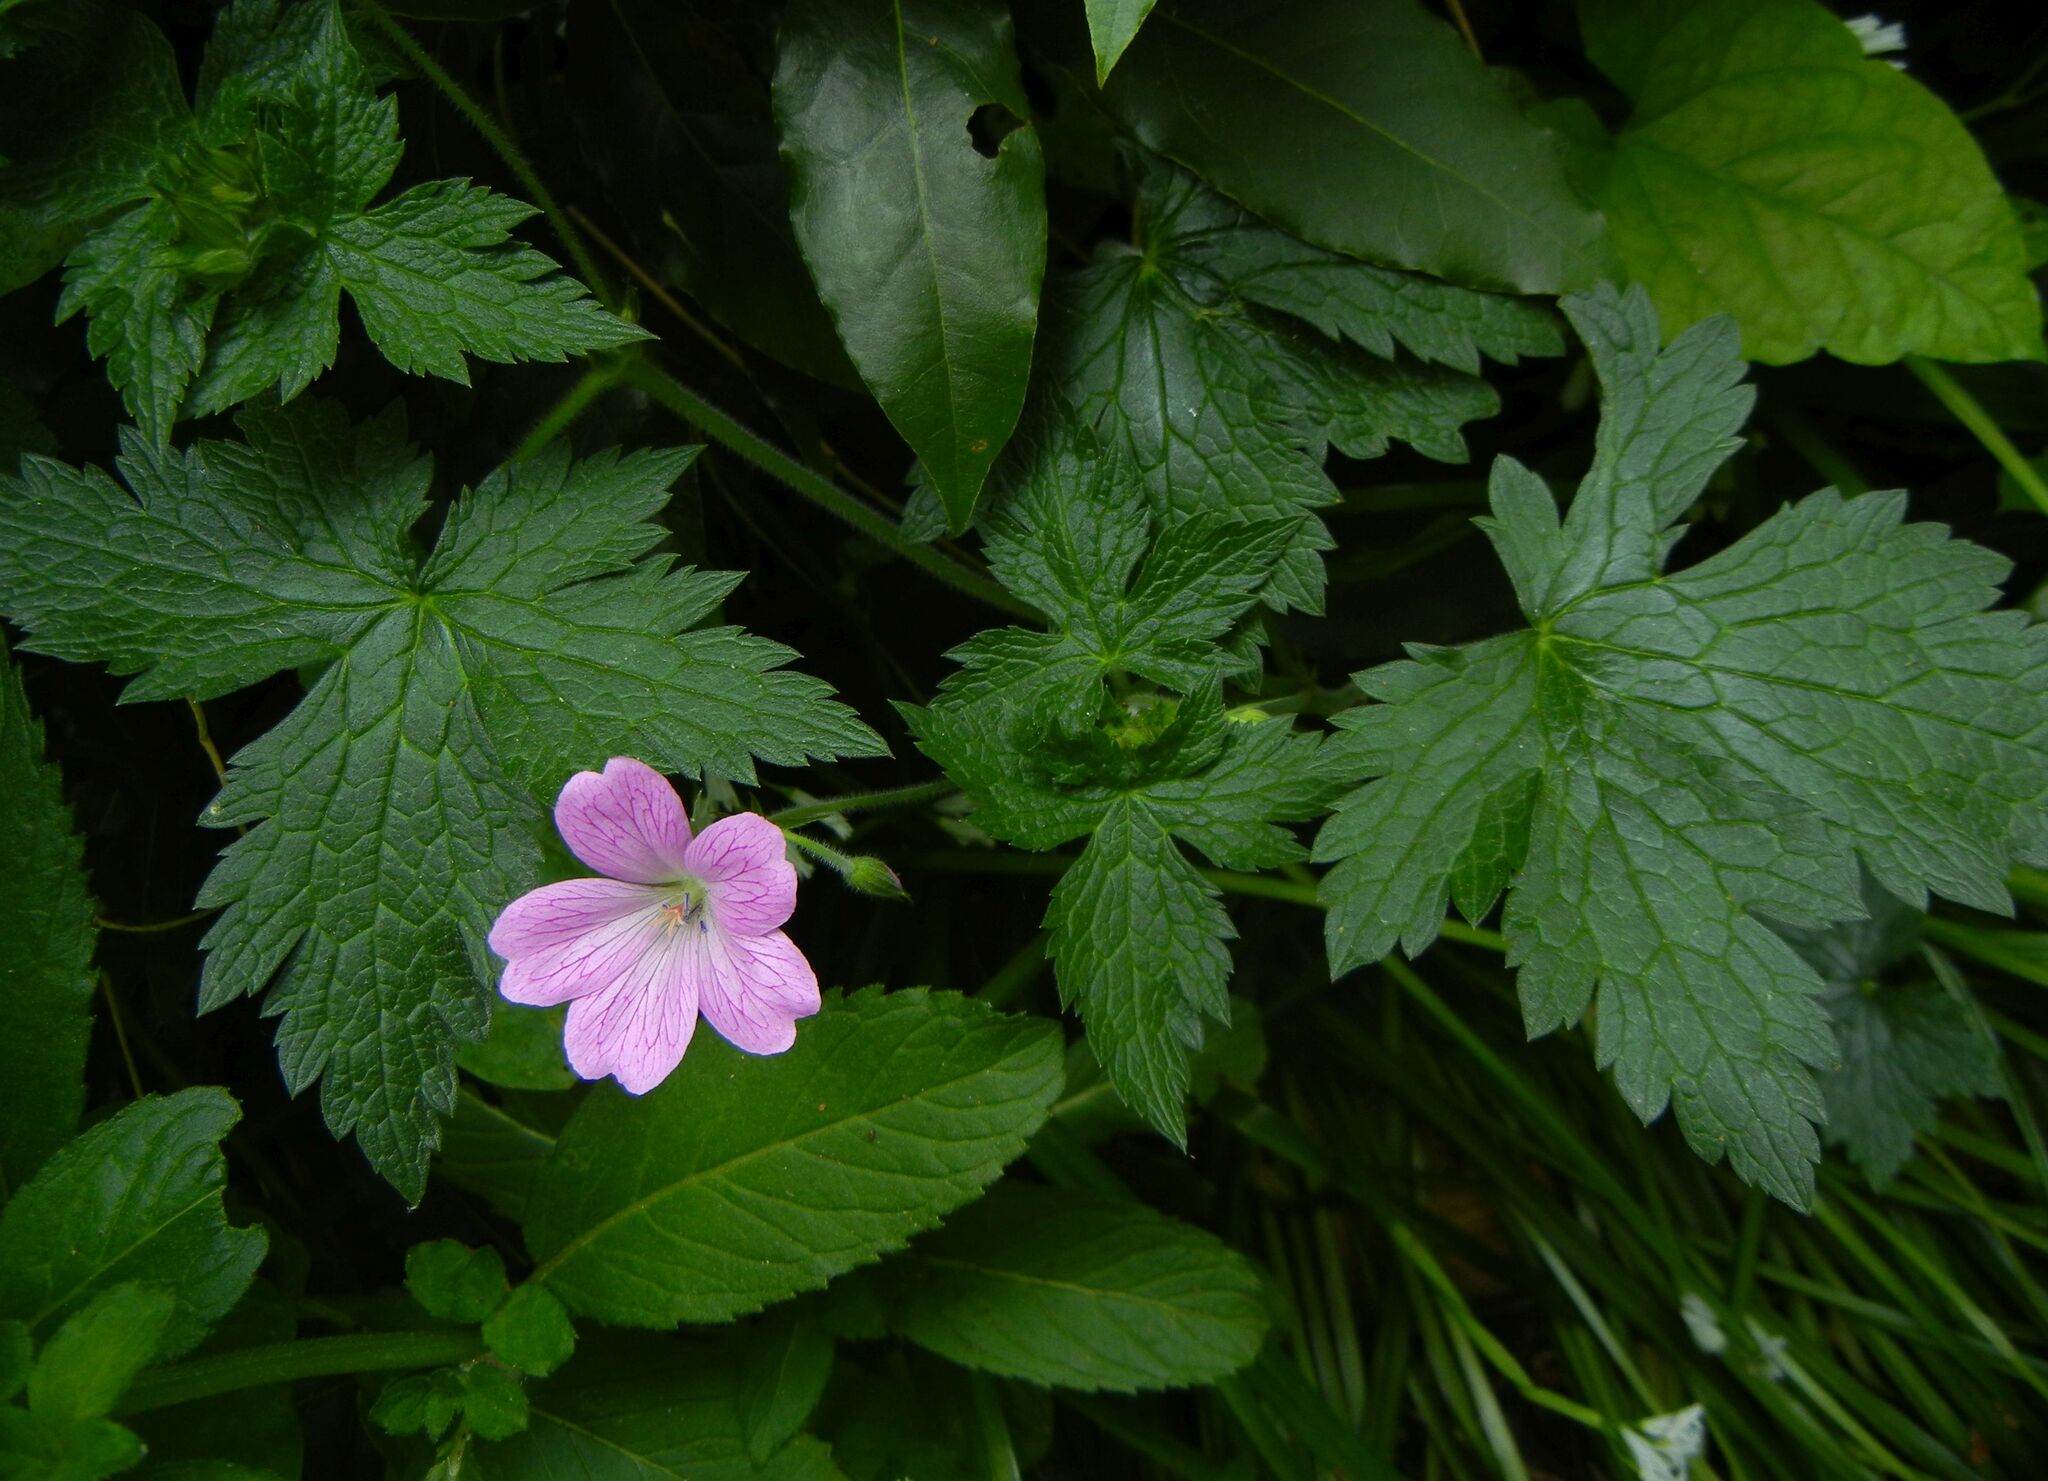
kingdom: Plantae
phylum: Tracheophyta
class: Magnoliopsida
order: Geraniales
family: Geraniaceae
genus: Geranium
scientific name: Geranium oxonianum
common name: Druce's crane's-bill
